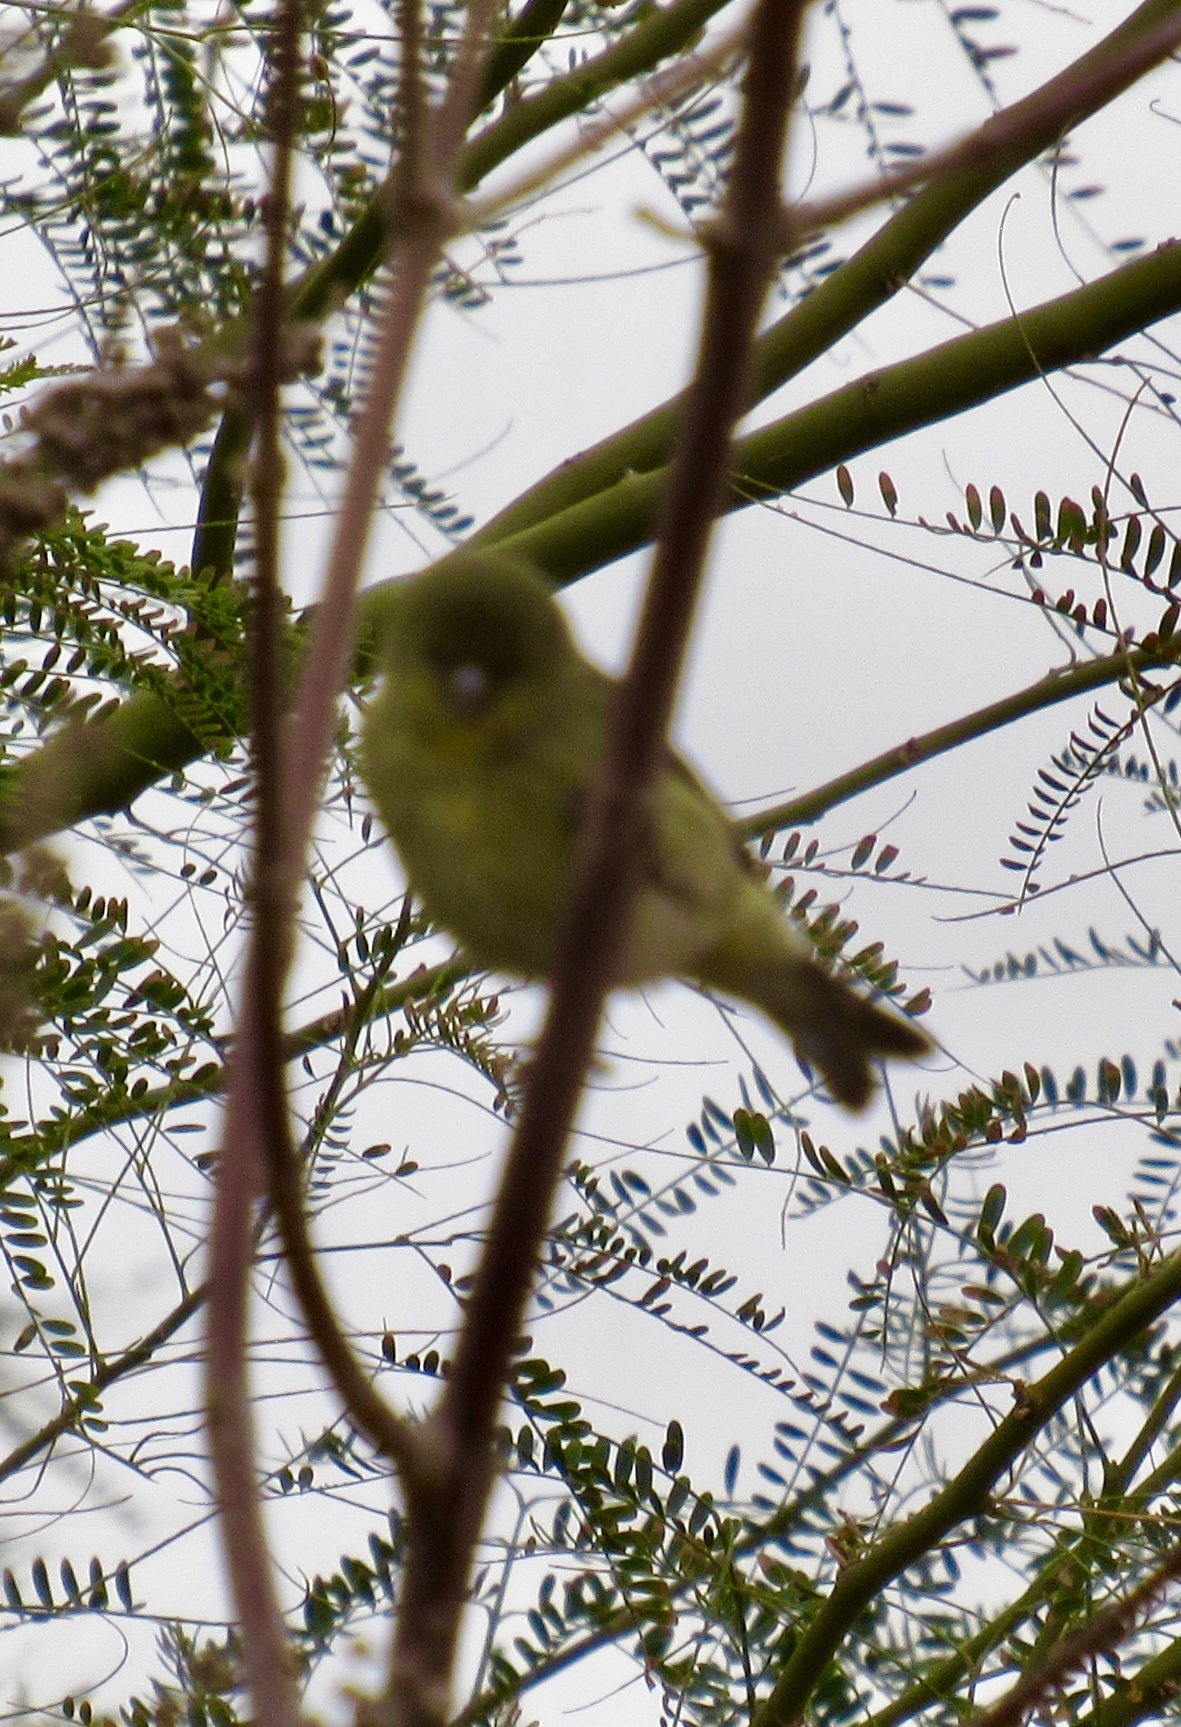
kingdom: Animalia
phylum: Chordata
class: Aves
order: Passeriformes
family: Fringillidae
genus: Spinus
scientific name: Spinus psaltria
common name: Lesser goldfinch
